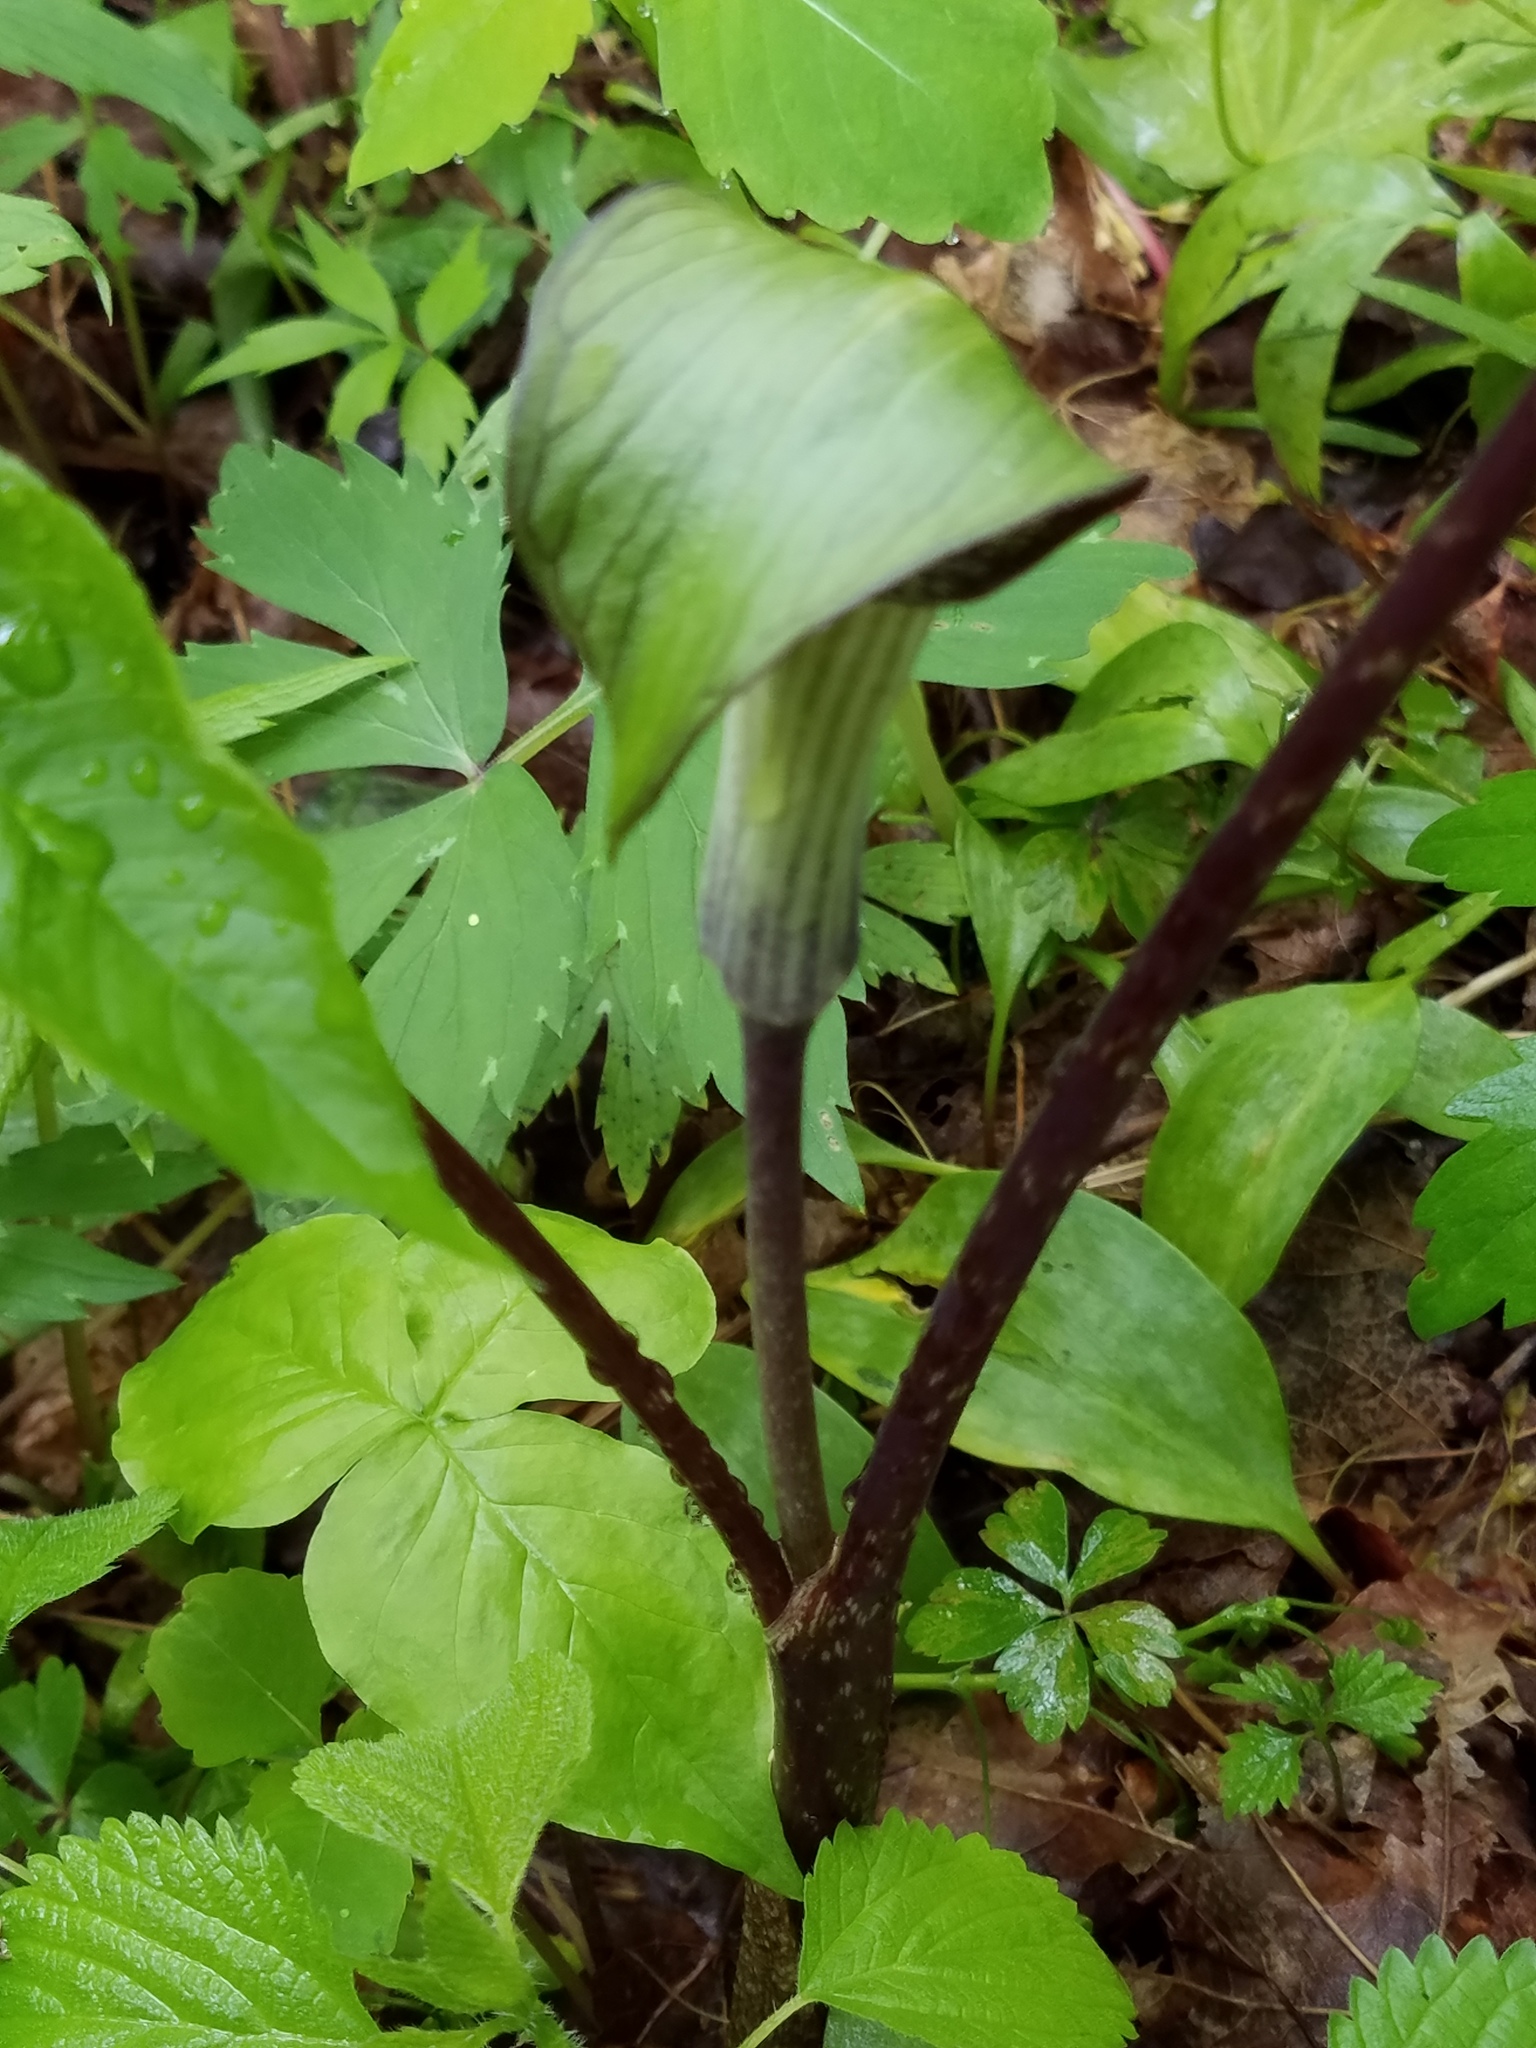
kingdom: Plantae
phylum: Tracheophyta
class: Liliopsida
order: Alismatales
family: Araceae
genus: Arisaema
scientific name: Arisaema triphyllum
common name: Jack-in-the-pulpit
